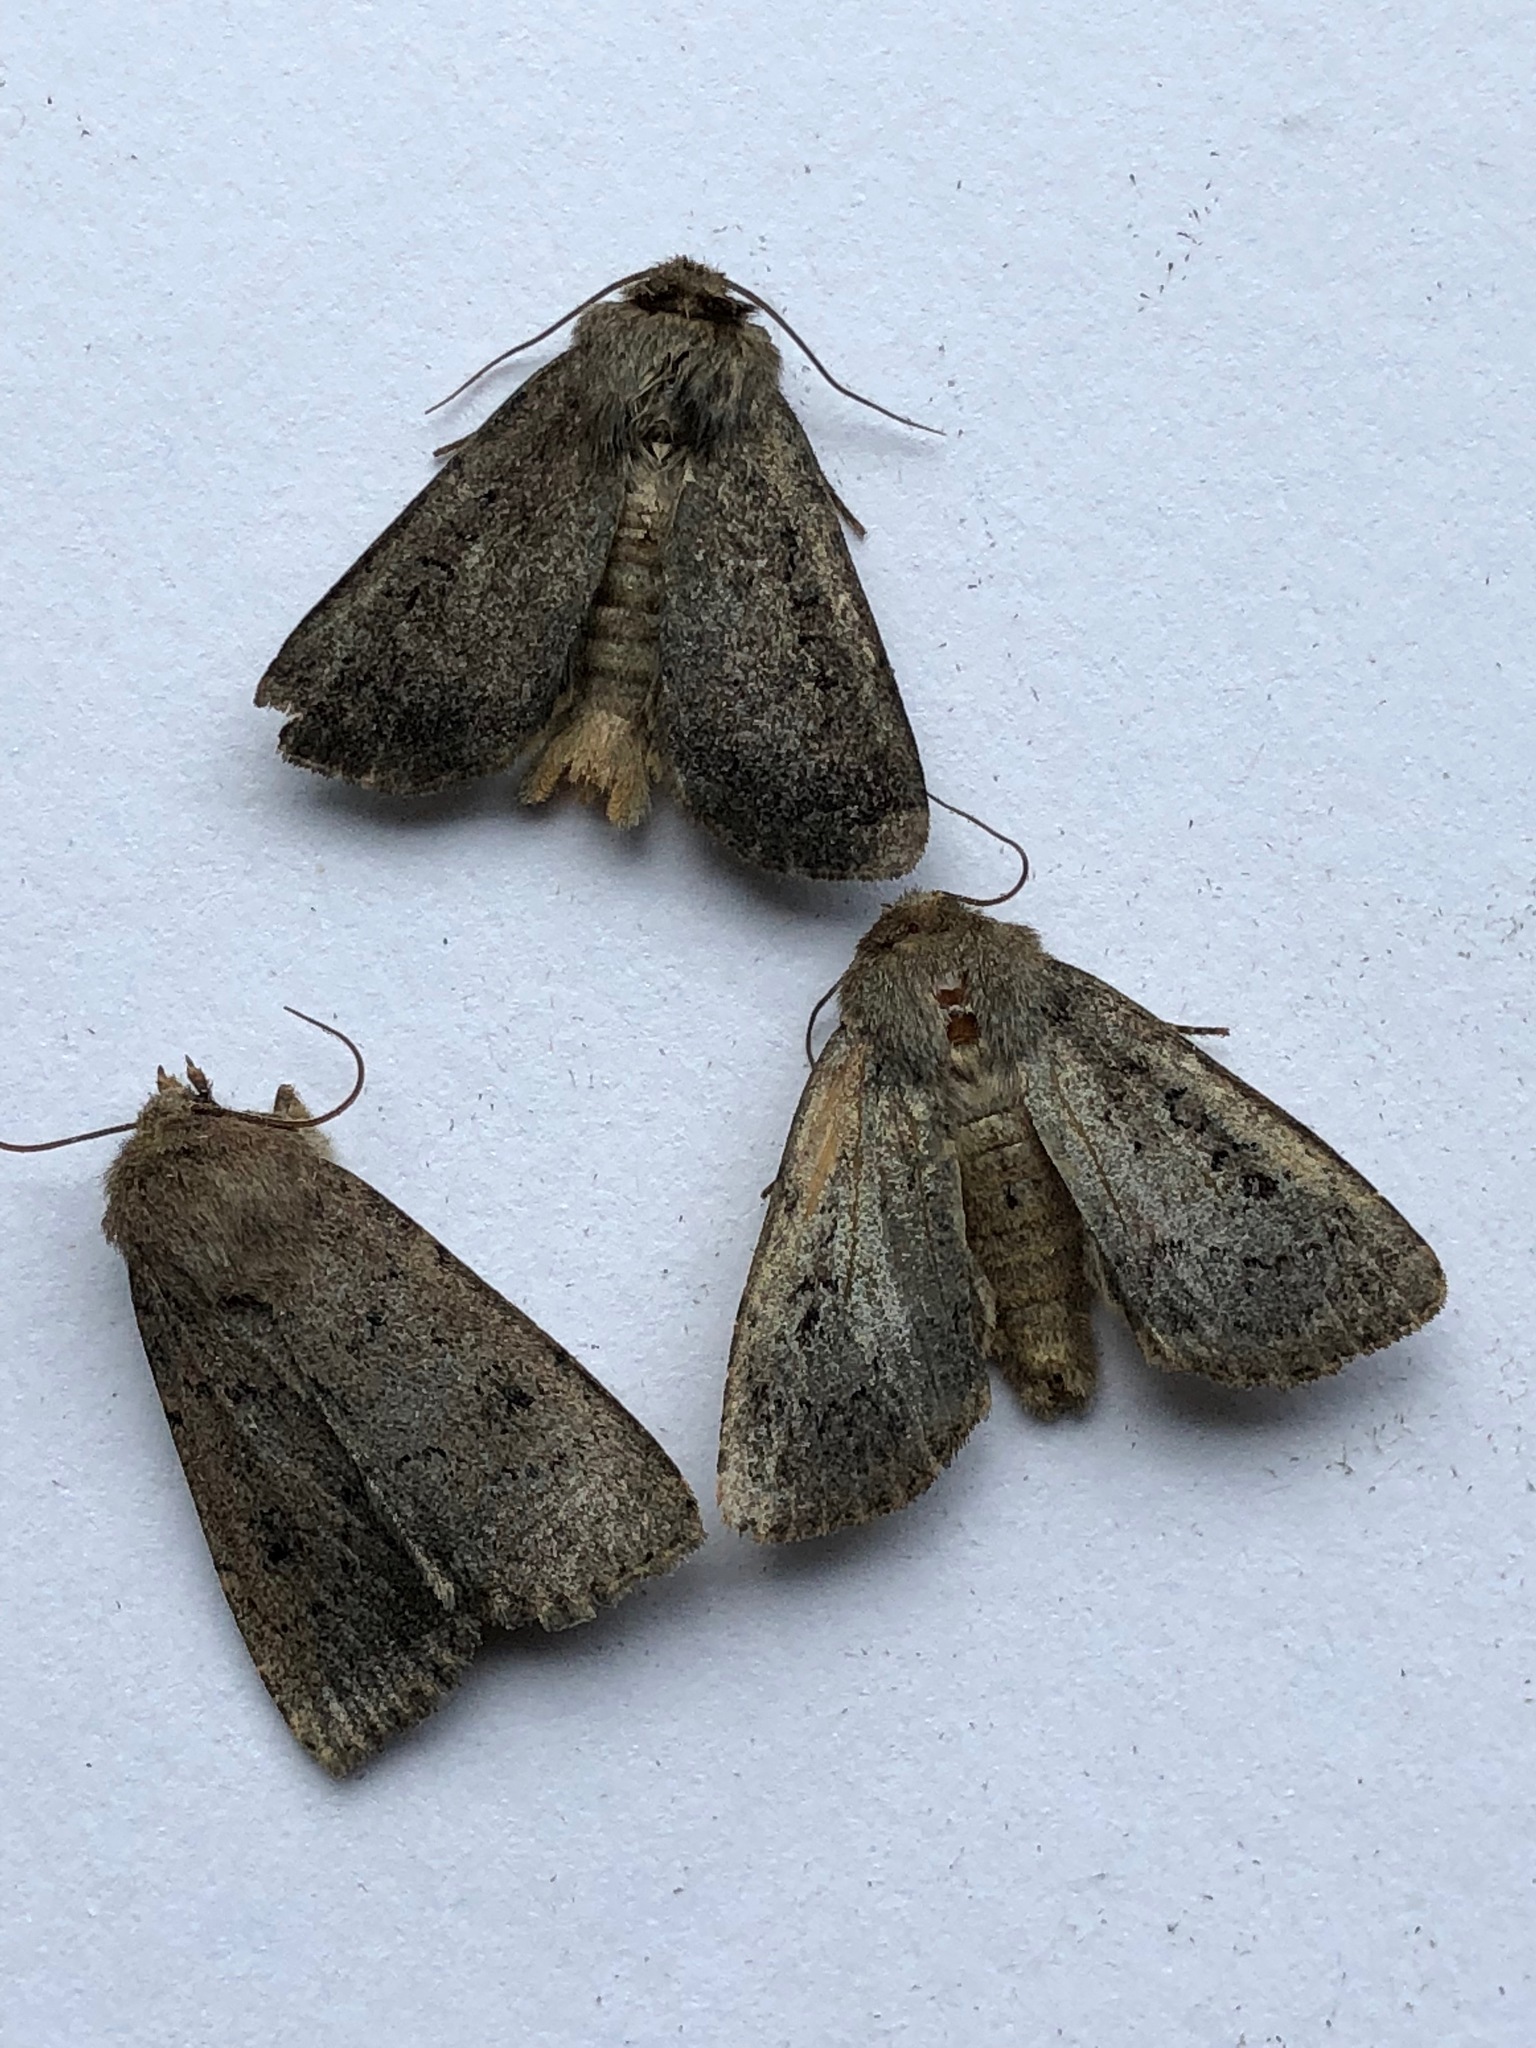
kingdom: Animalia
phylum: Arthropoda
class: Insecta
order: Lepidoptera
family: Noctuidae
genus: Graphiphora
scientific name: Graphiphora augur
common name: Double dart
